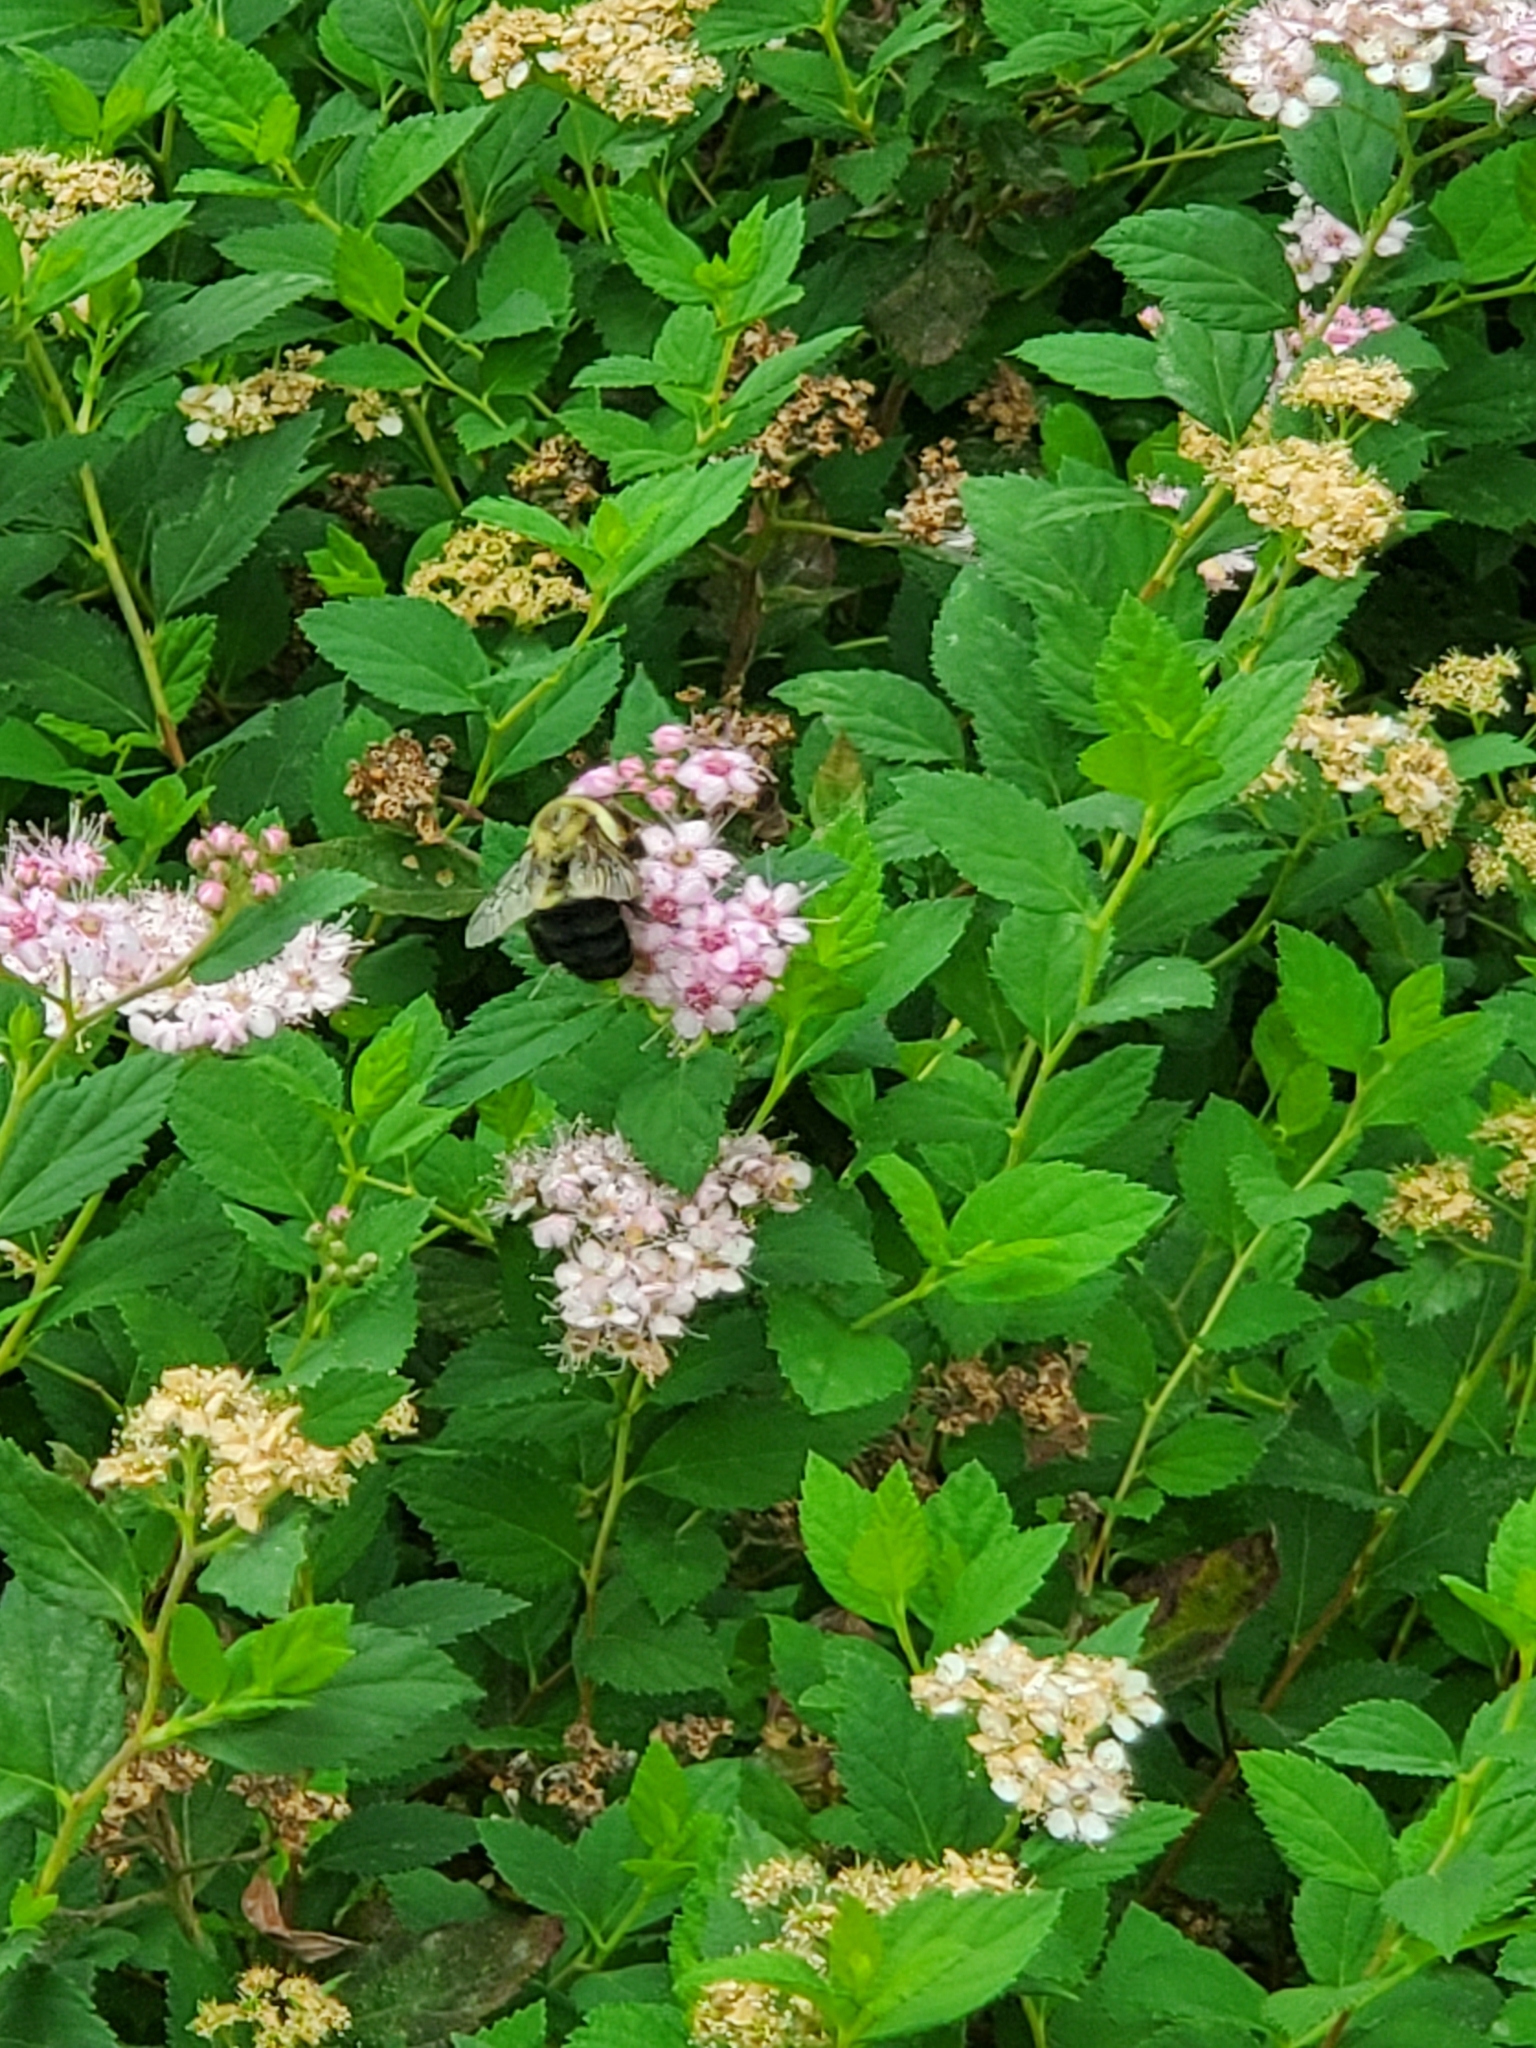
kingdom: Animalia
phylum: Arthropoda
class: Insecta
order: Hymenoptera
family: Apidae
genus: Bombus
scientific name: Bombus impatiens
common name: Common eastern bumble bee
